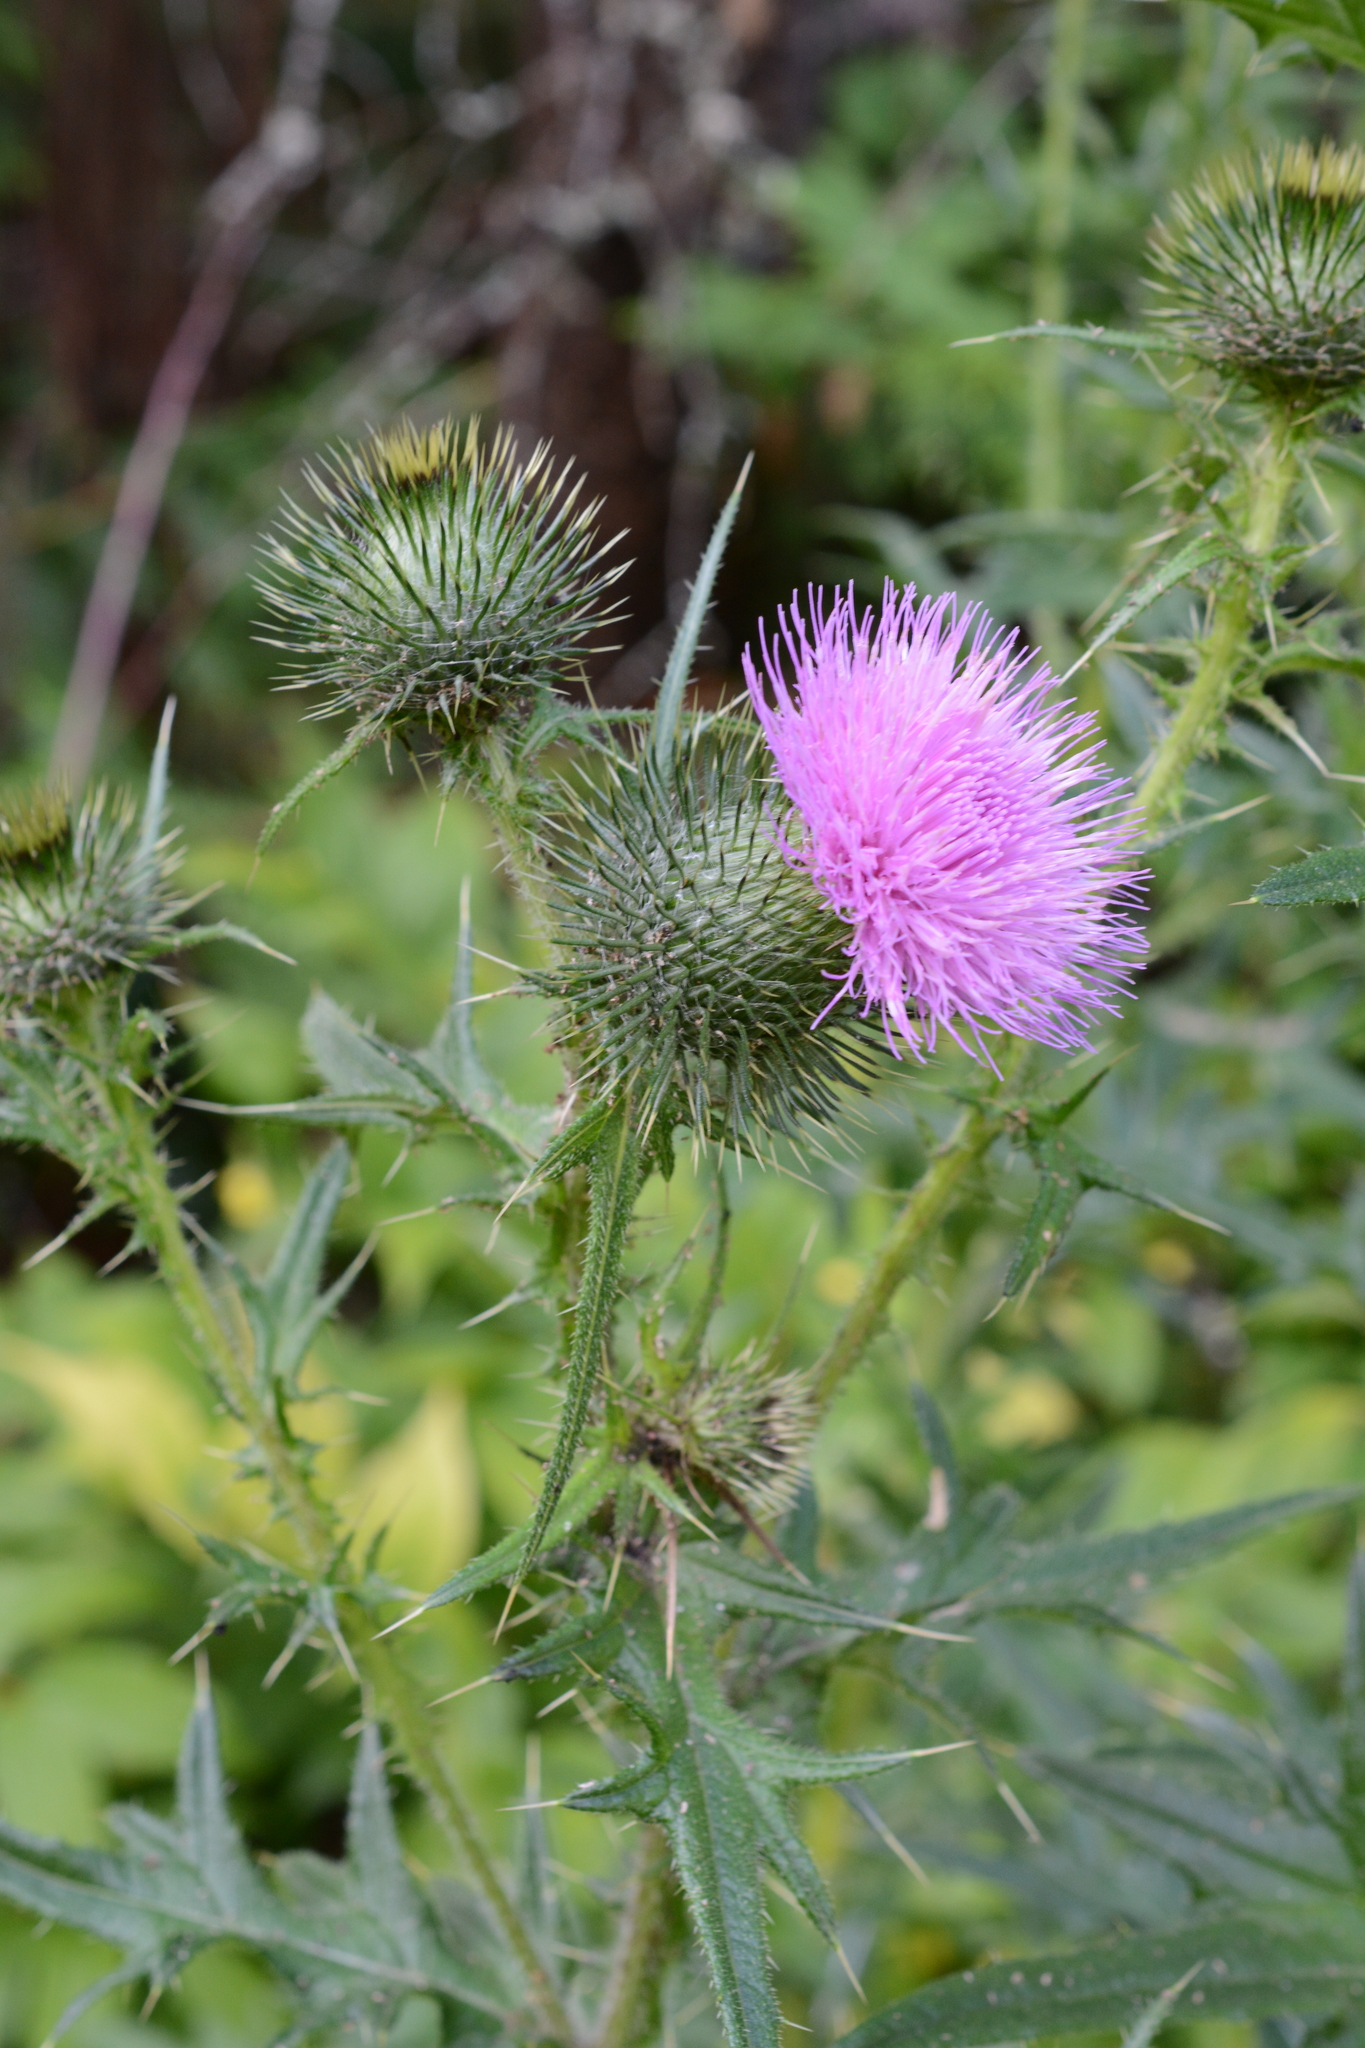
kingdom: Plantae
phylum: Tracheophyta
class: Magnoliopsida
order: Asterales
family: Asteraceae
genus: Cirsium
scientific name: Cirsium vulgare
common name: Bull thistle
